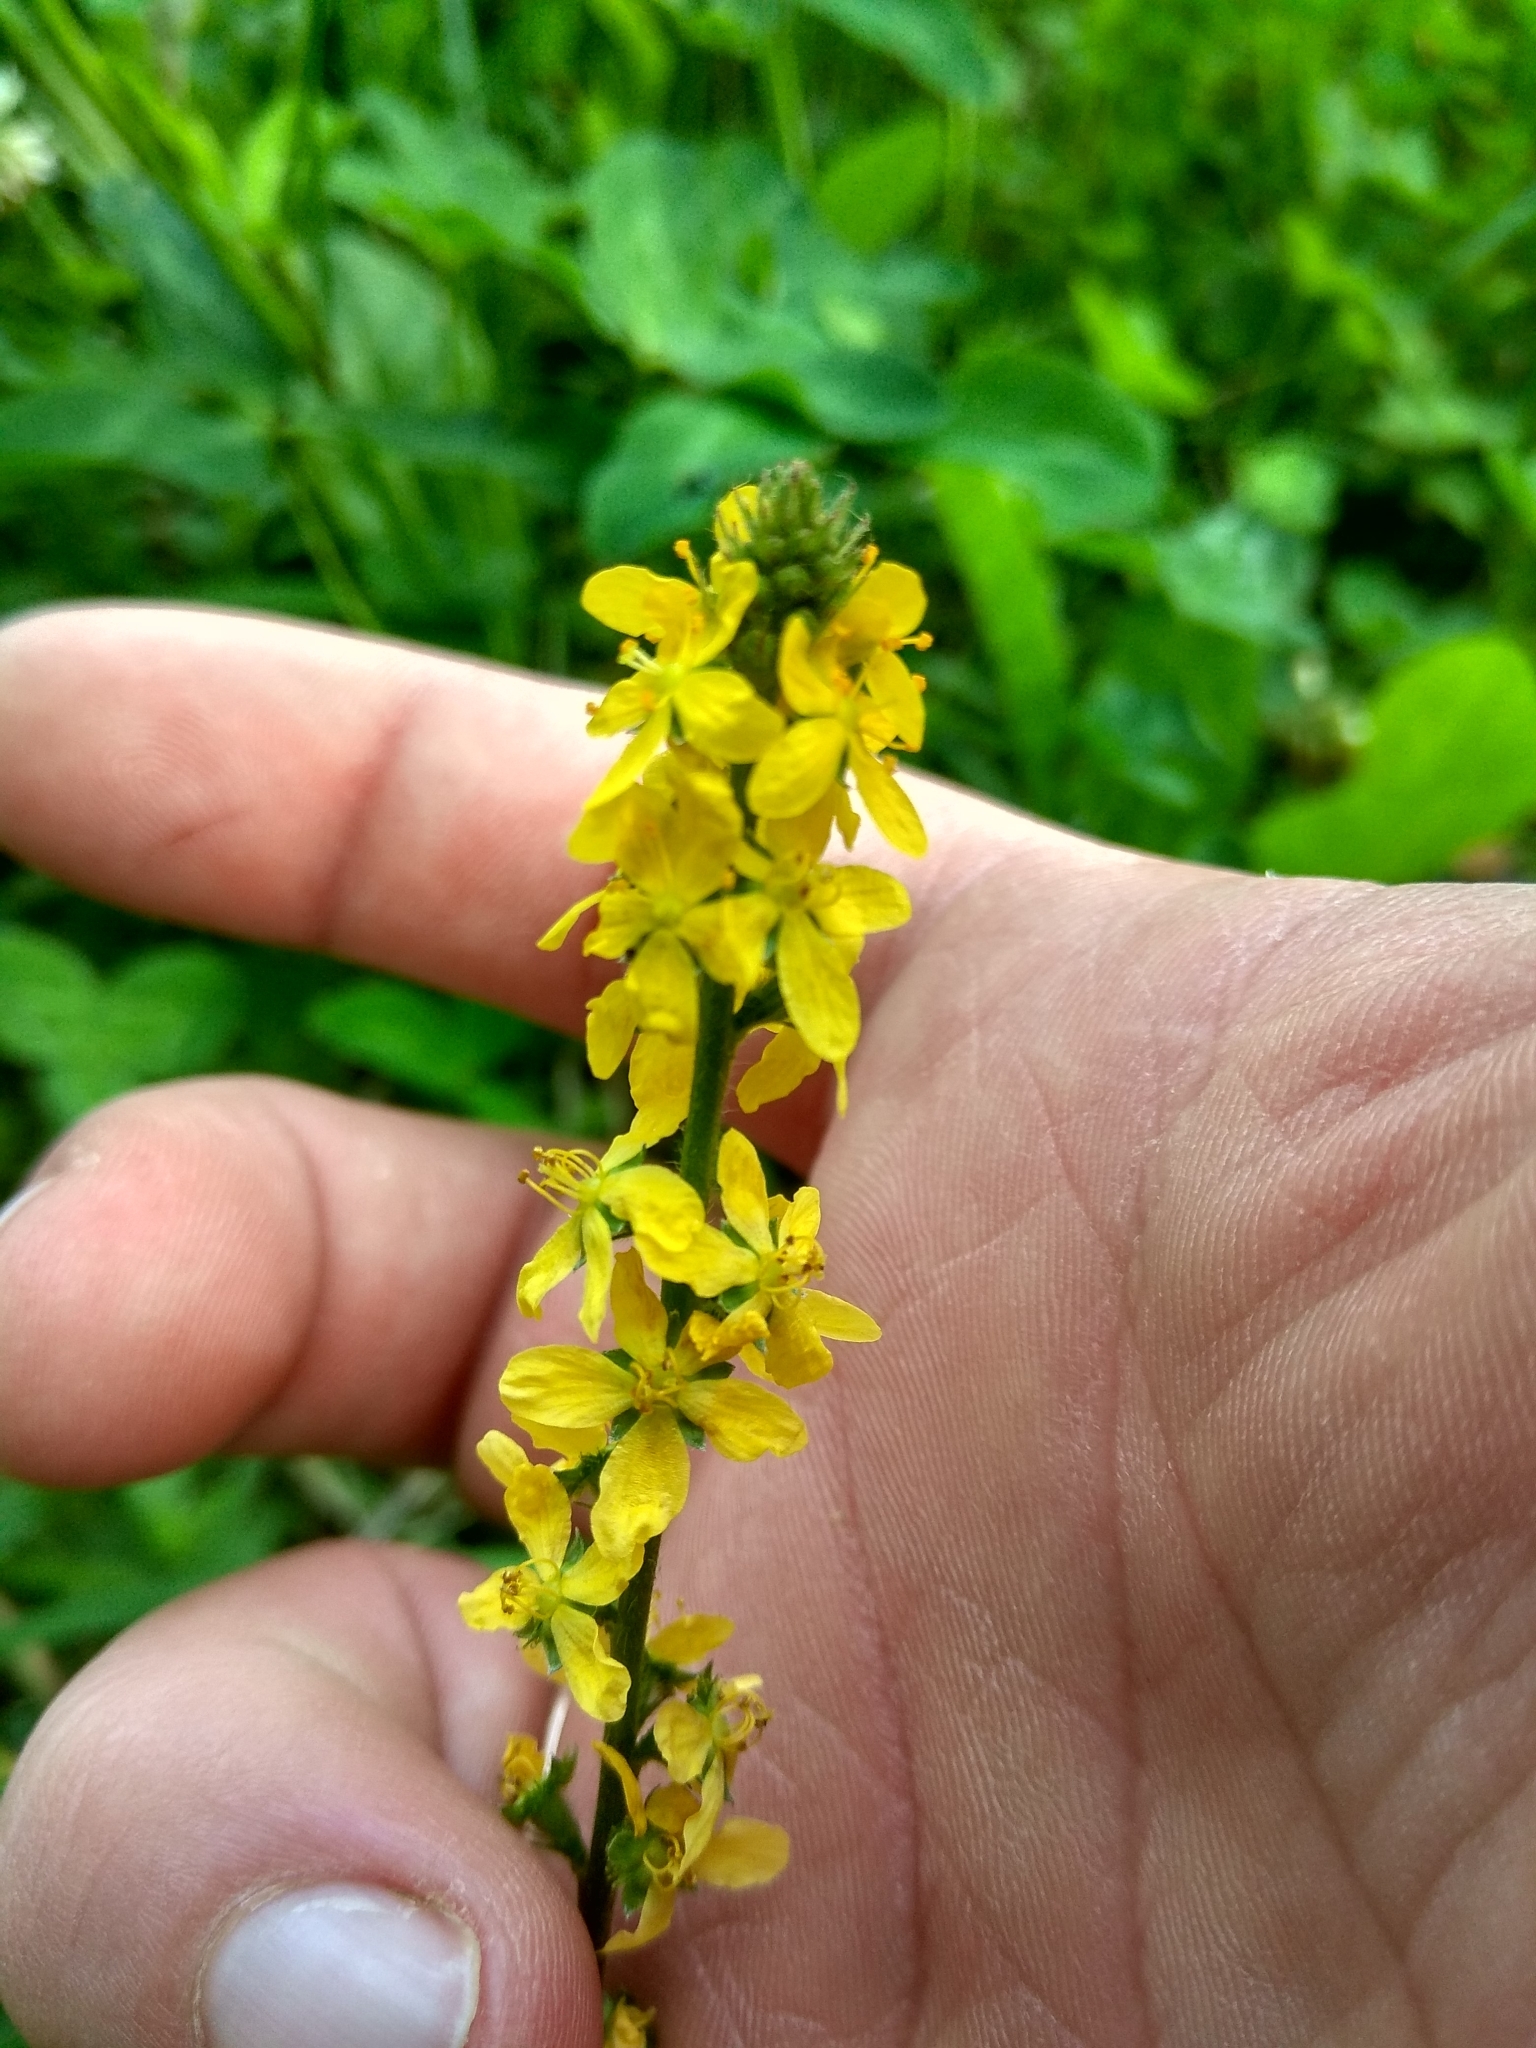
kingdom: Plantae
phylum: Tracheophyta
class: Magnoliopsida
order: Rosales
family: Rosaceae
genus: Agrimonia
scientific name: Agrimonia eupatoria
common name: Agrimony
